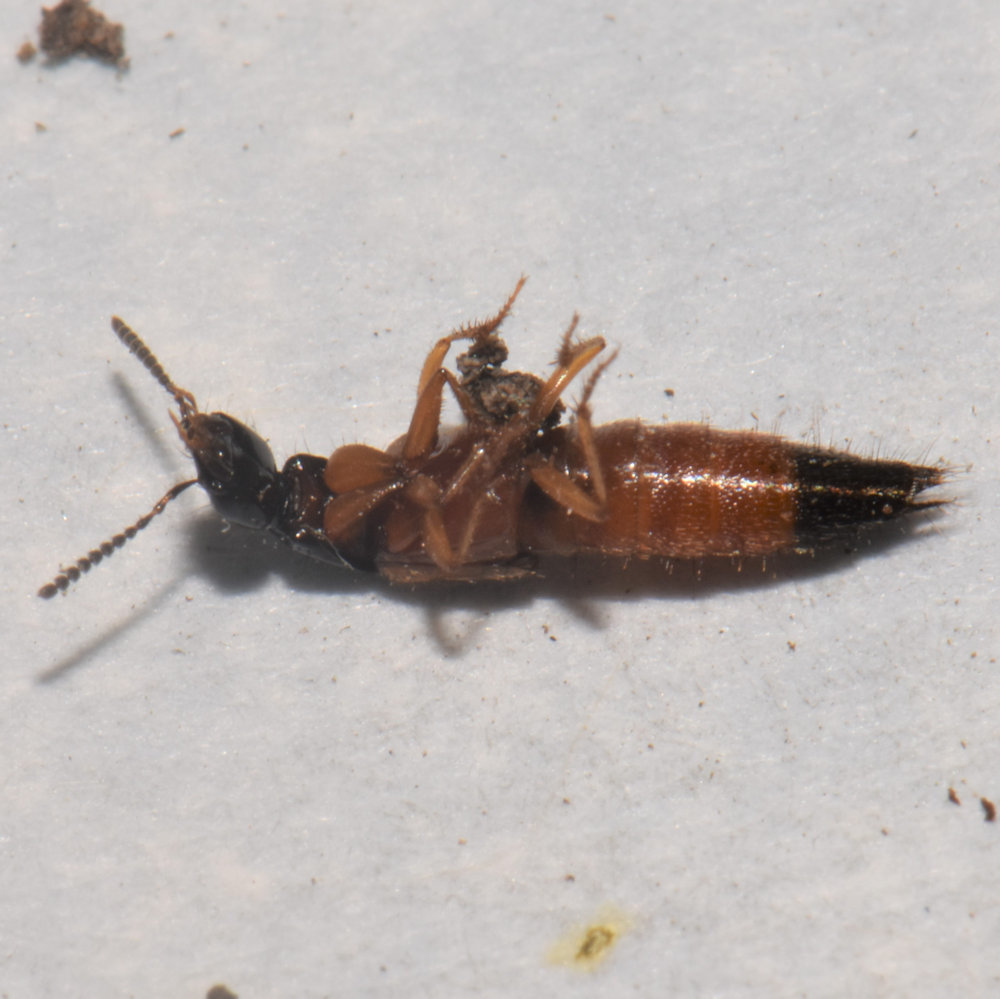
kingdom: Animalia
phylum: Arthropoda
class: Insecta
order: Coleoptera
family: Staphylinidae
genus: Belonuchus
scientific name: Belonuchus rufipennis
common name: Large rove beetle
